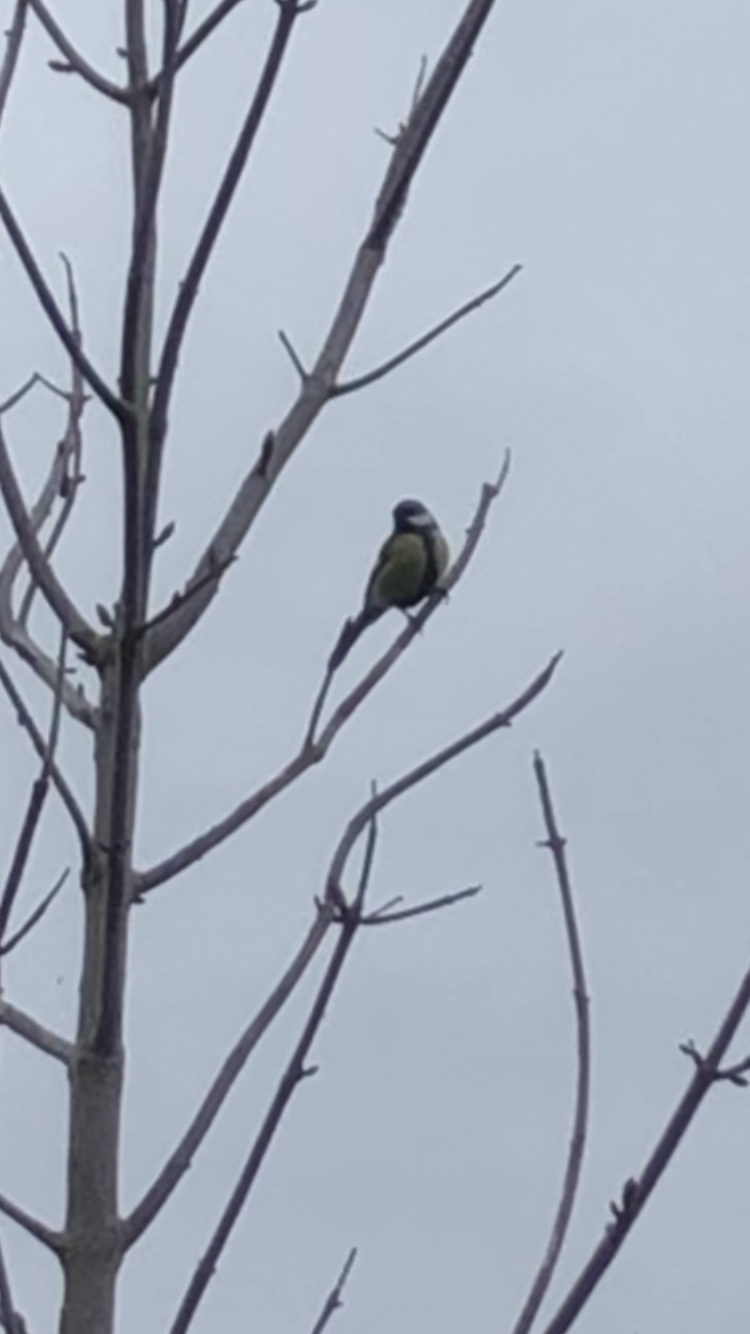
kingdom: Animalia
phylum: Chordata
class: Aves
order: Passeriformes
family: Paridae
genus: Parus
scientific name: Parus major
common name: Great tit
